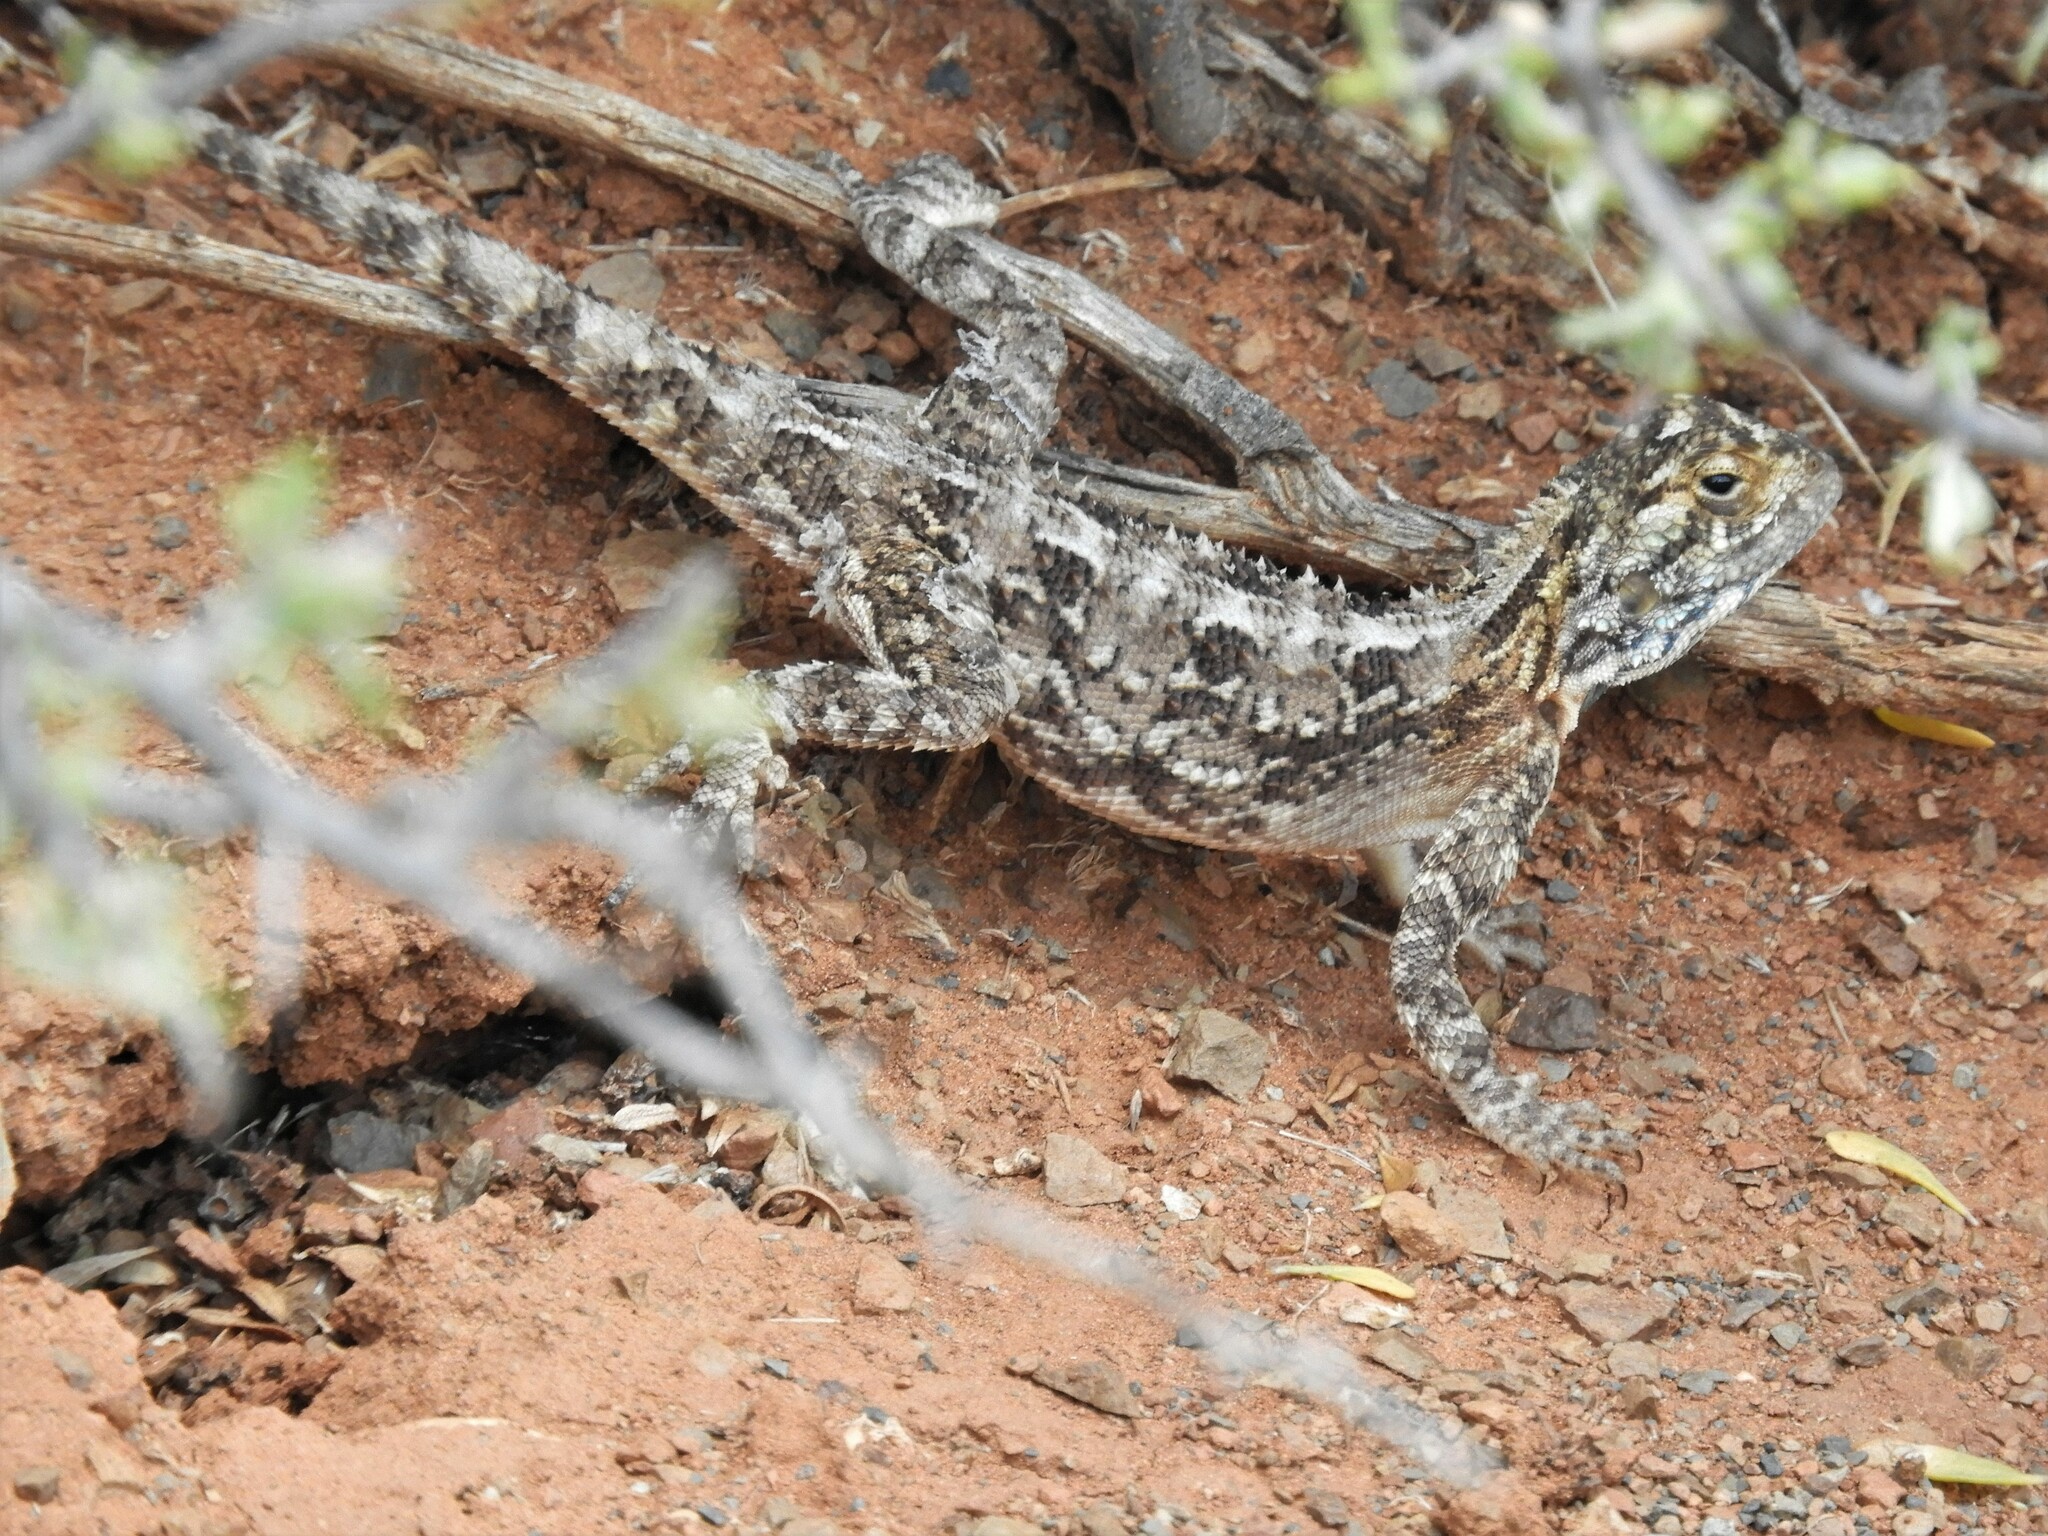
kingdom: Animalia
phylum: Chordata
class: Squamata
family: Agamidae
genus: Agama
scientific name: Agama aculeata
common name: Common ground agama
